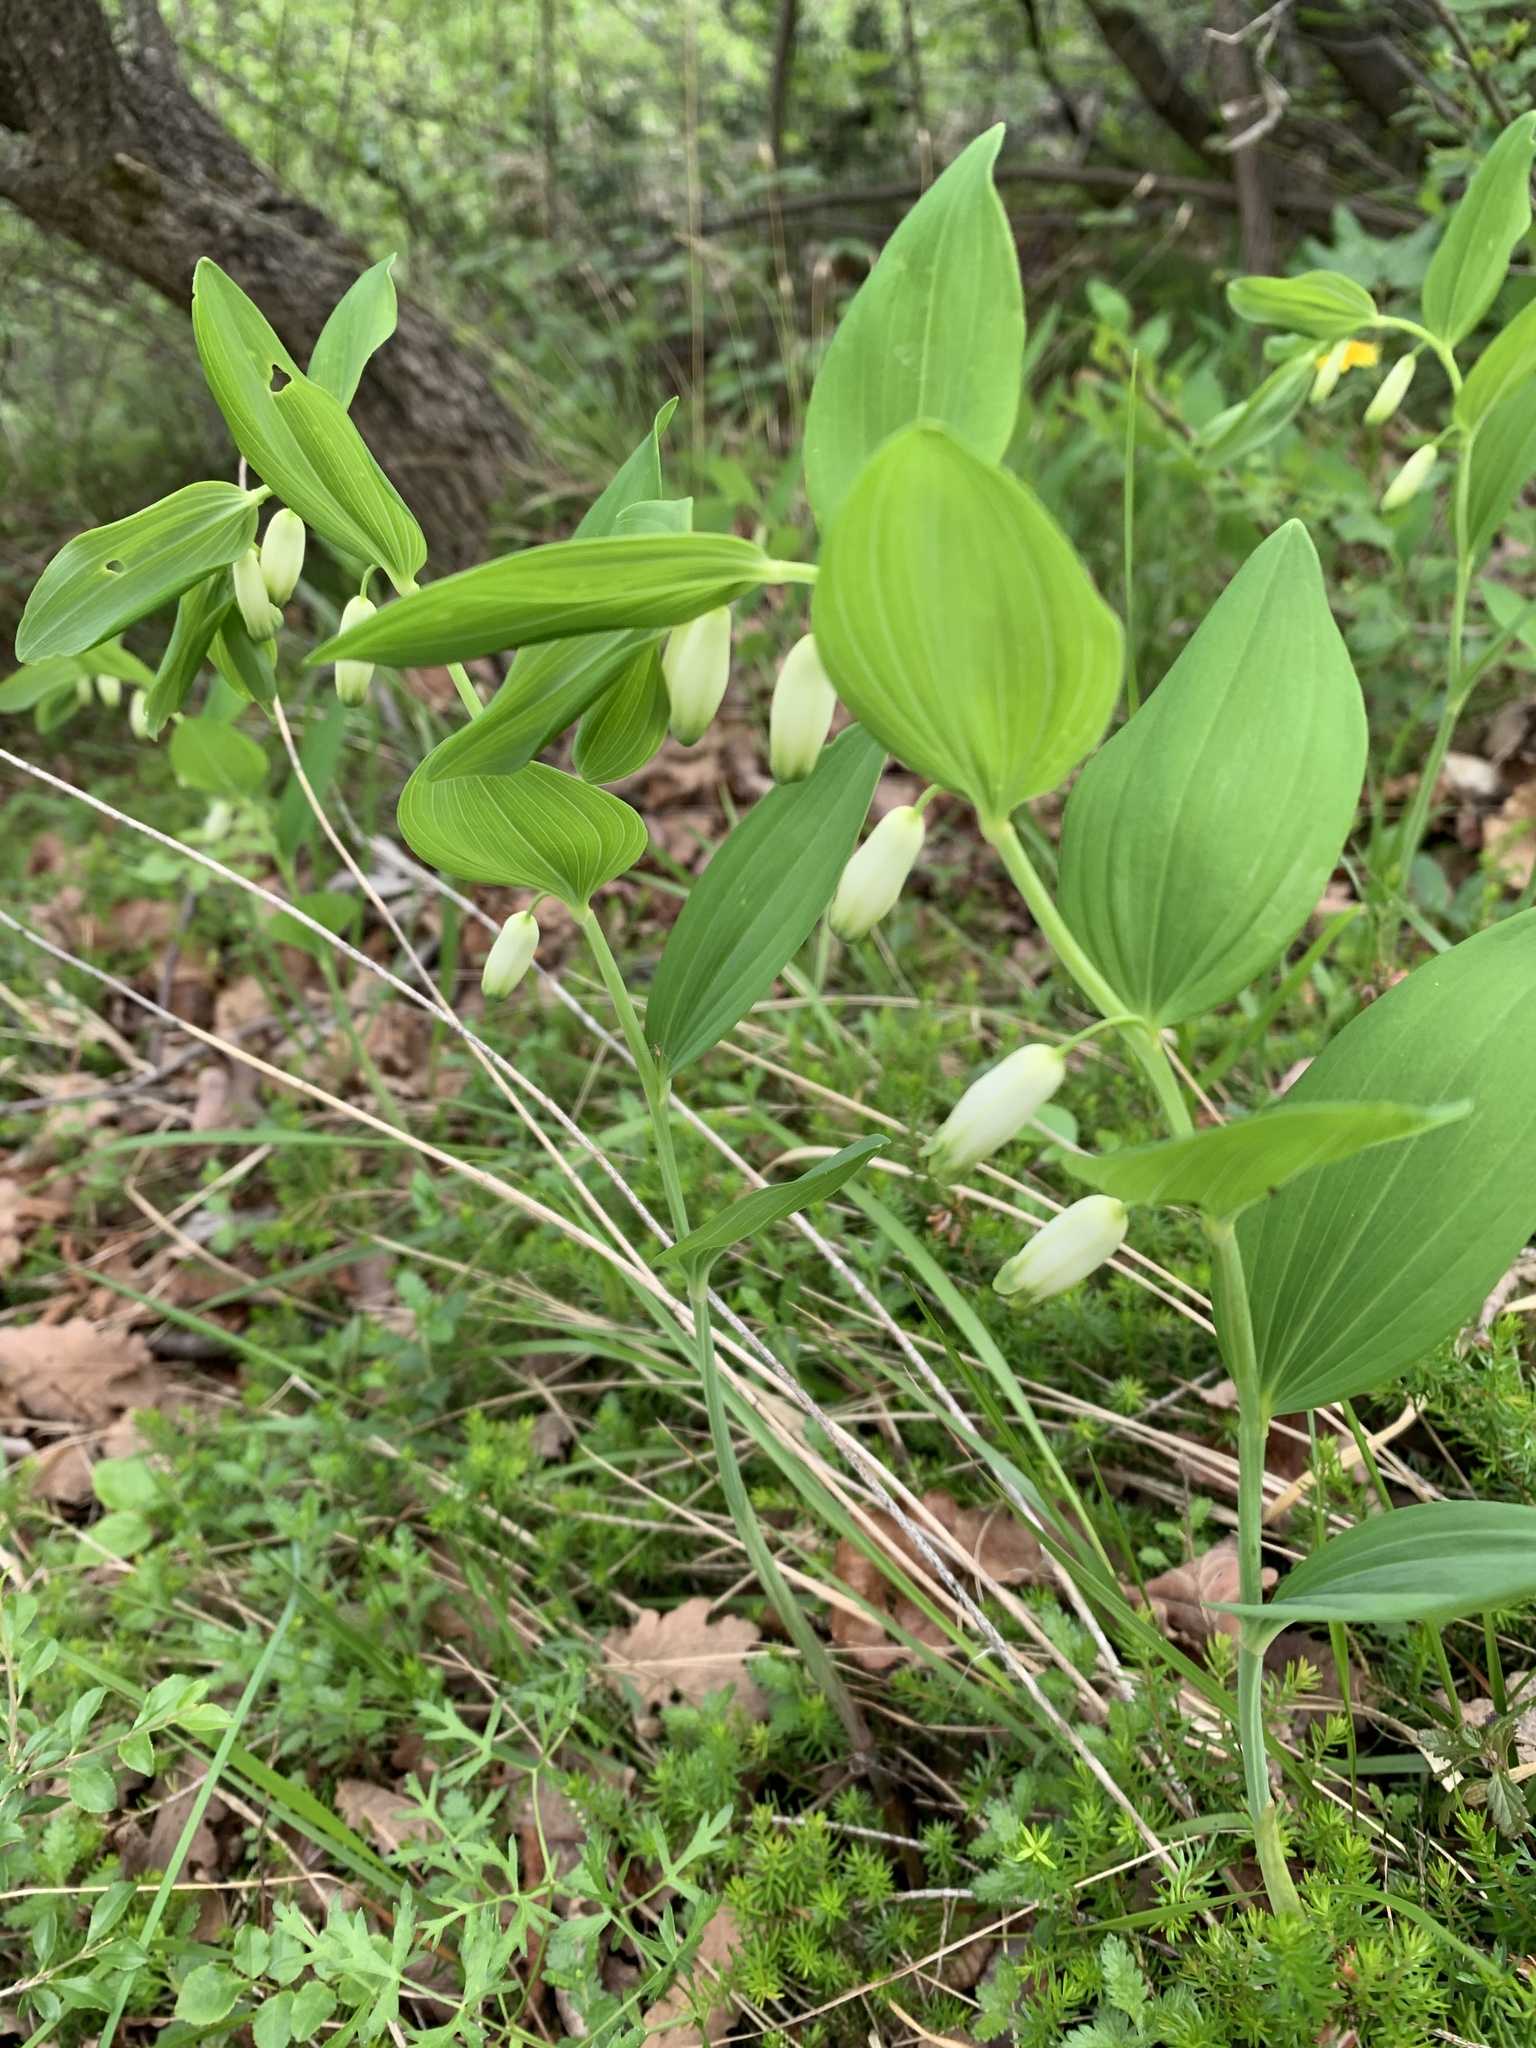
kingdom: Plantae
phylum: Tracheophyta
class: Liliopsida
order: Asparagales
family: Asparagaceae
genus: Polygonatum
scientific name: Polygonatum odoratum
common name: Angular solomon's-seal
